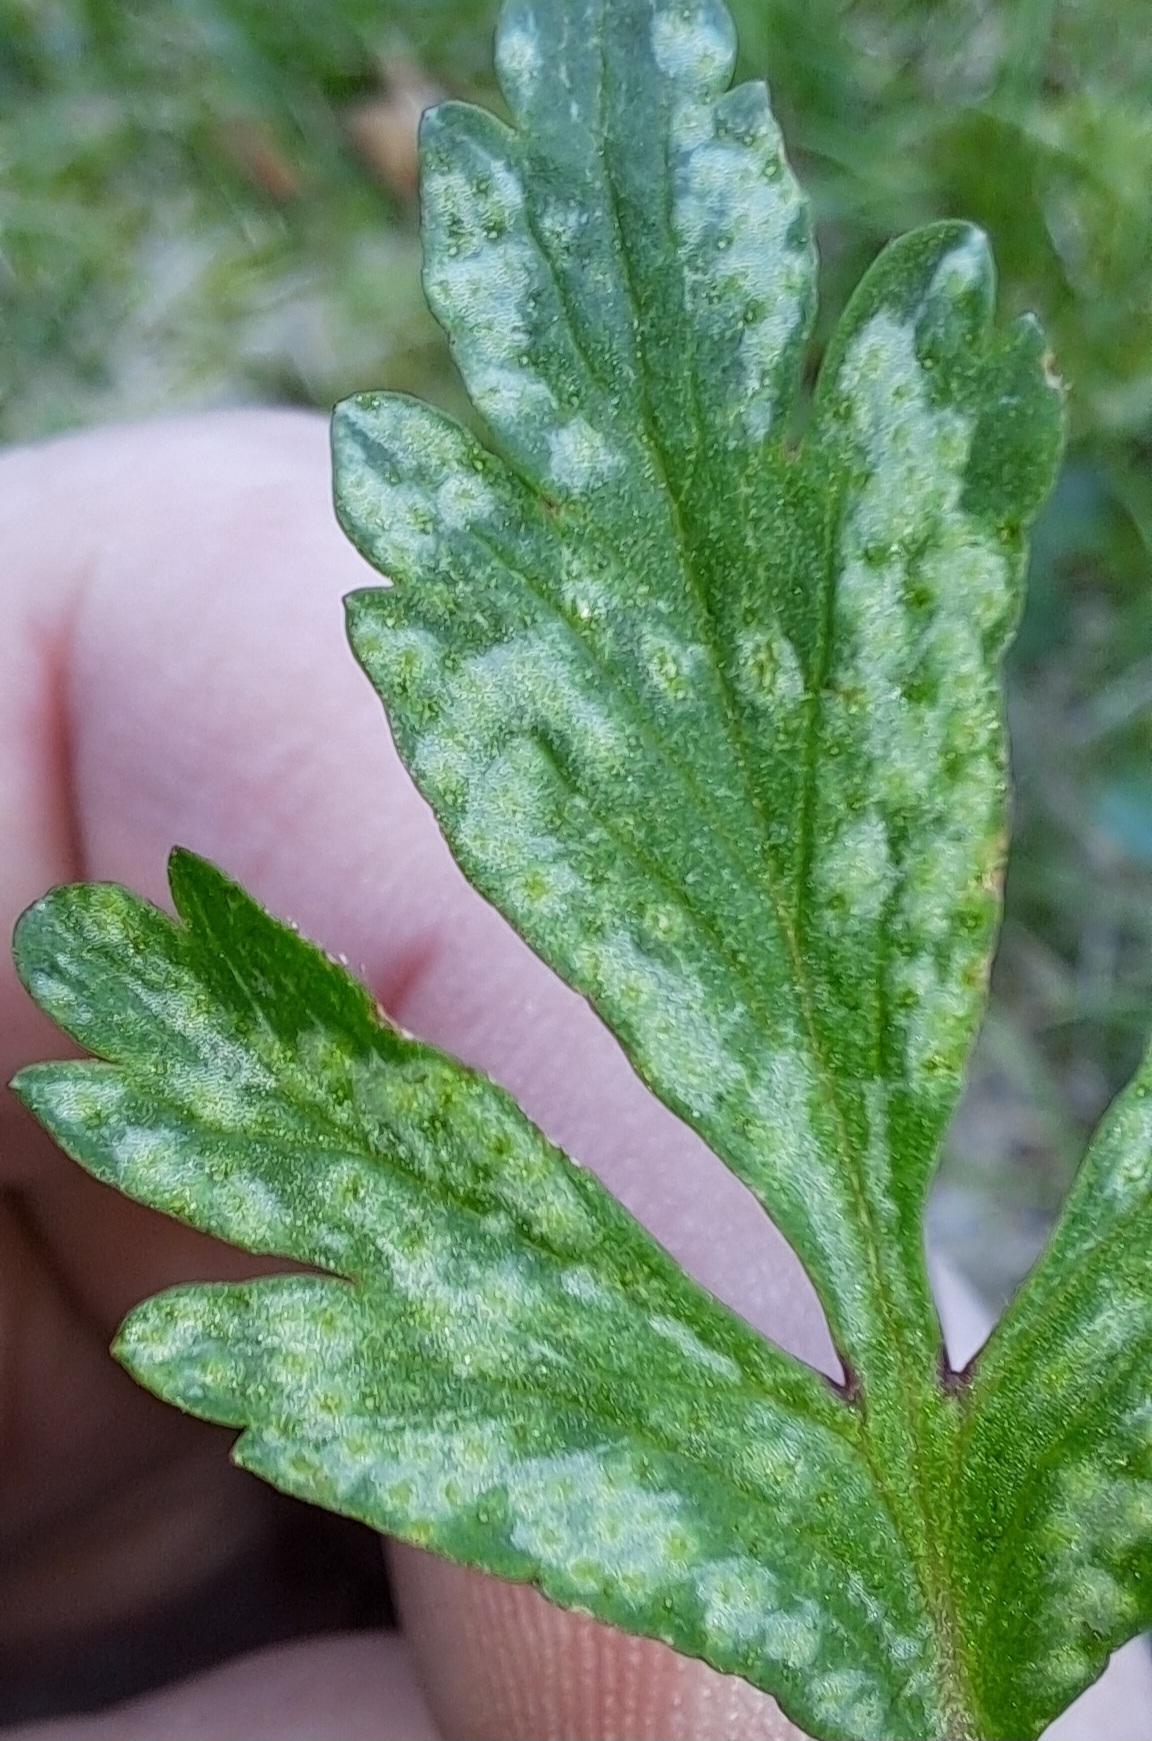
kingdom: Fungi
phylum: Basidiomycota
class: Pucciniomycetes
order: Pucciniales
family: Ochropsoraceae
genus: Ochropsora
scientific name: Ochropsora ariae
